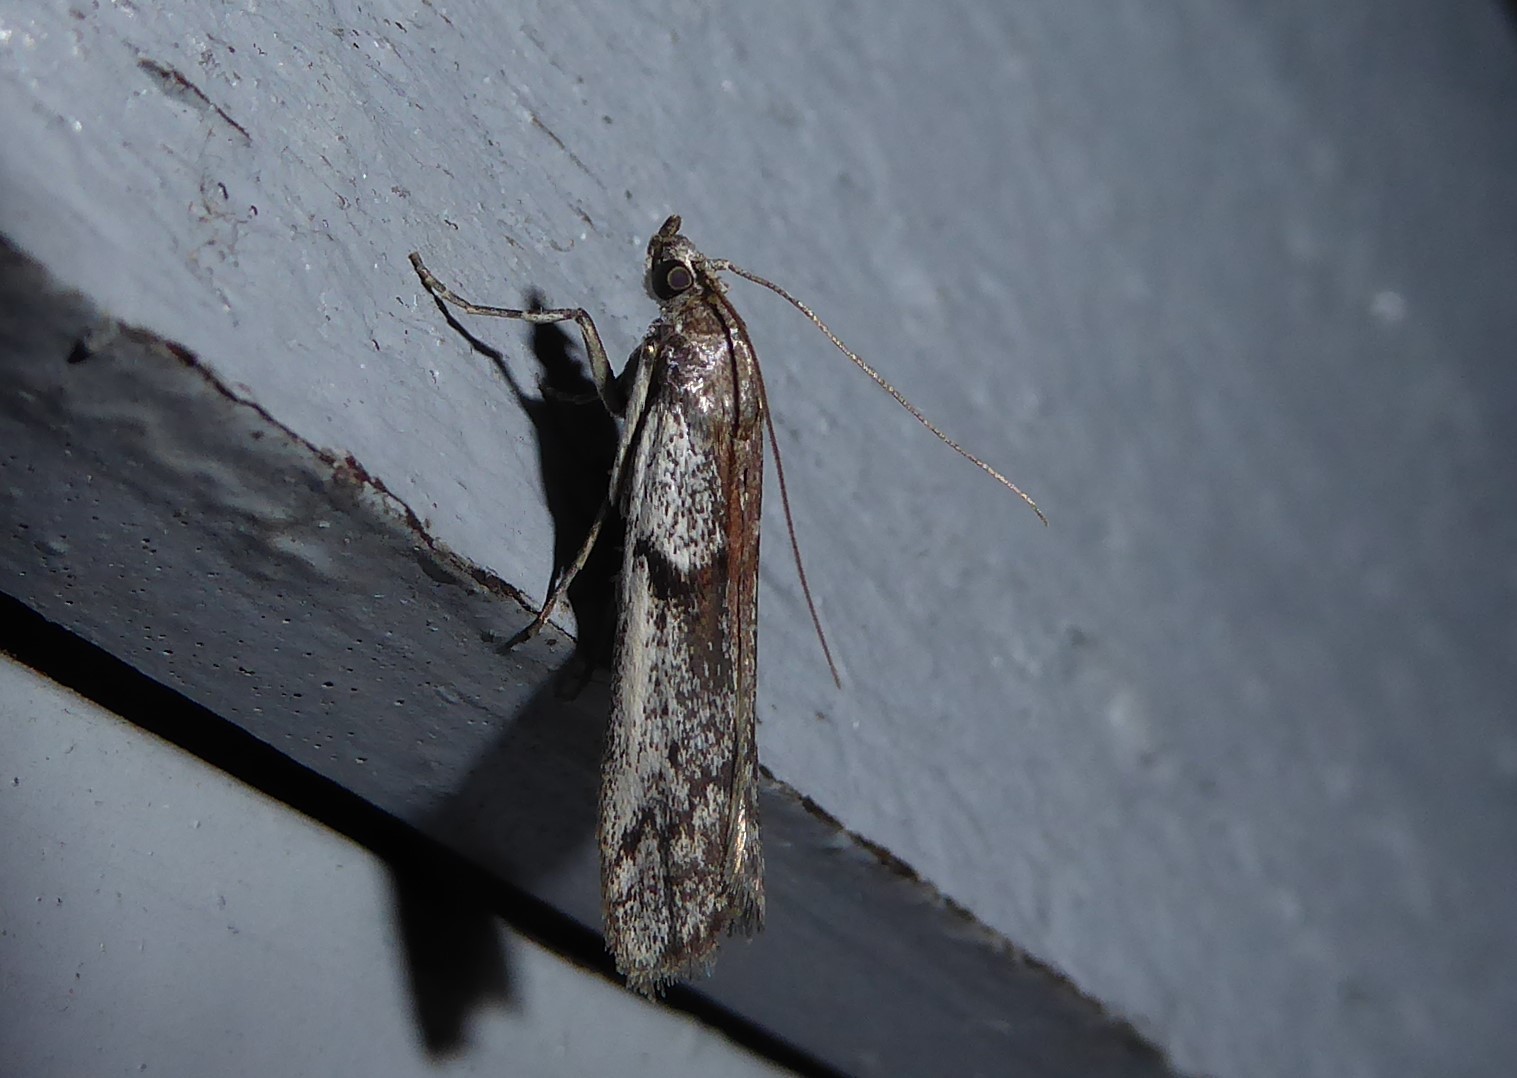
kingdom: Animalia
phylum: Arthropoda
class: Insecta
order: Lepidoptera
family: Pyralidae
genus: Patagoniodes
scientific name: Patagoniodes farinaria
